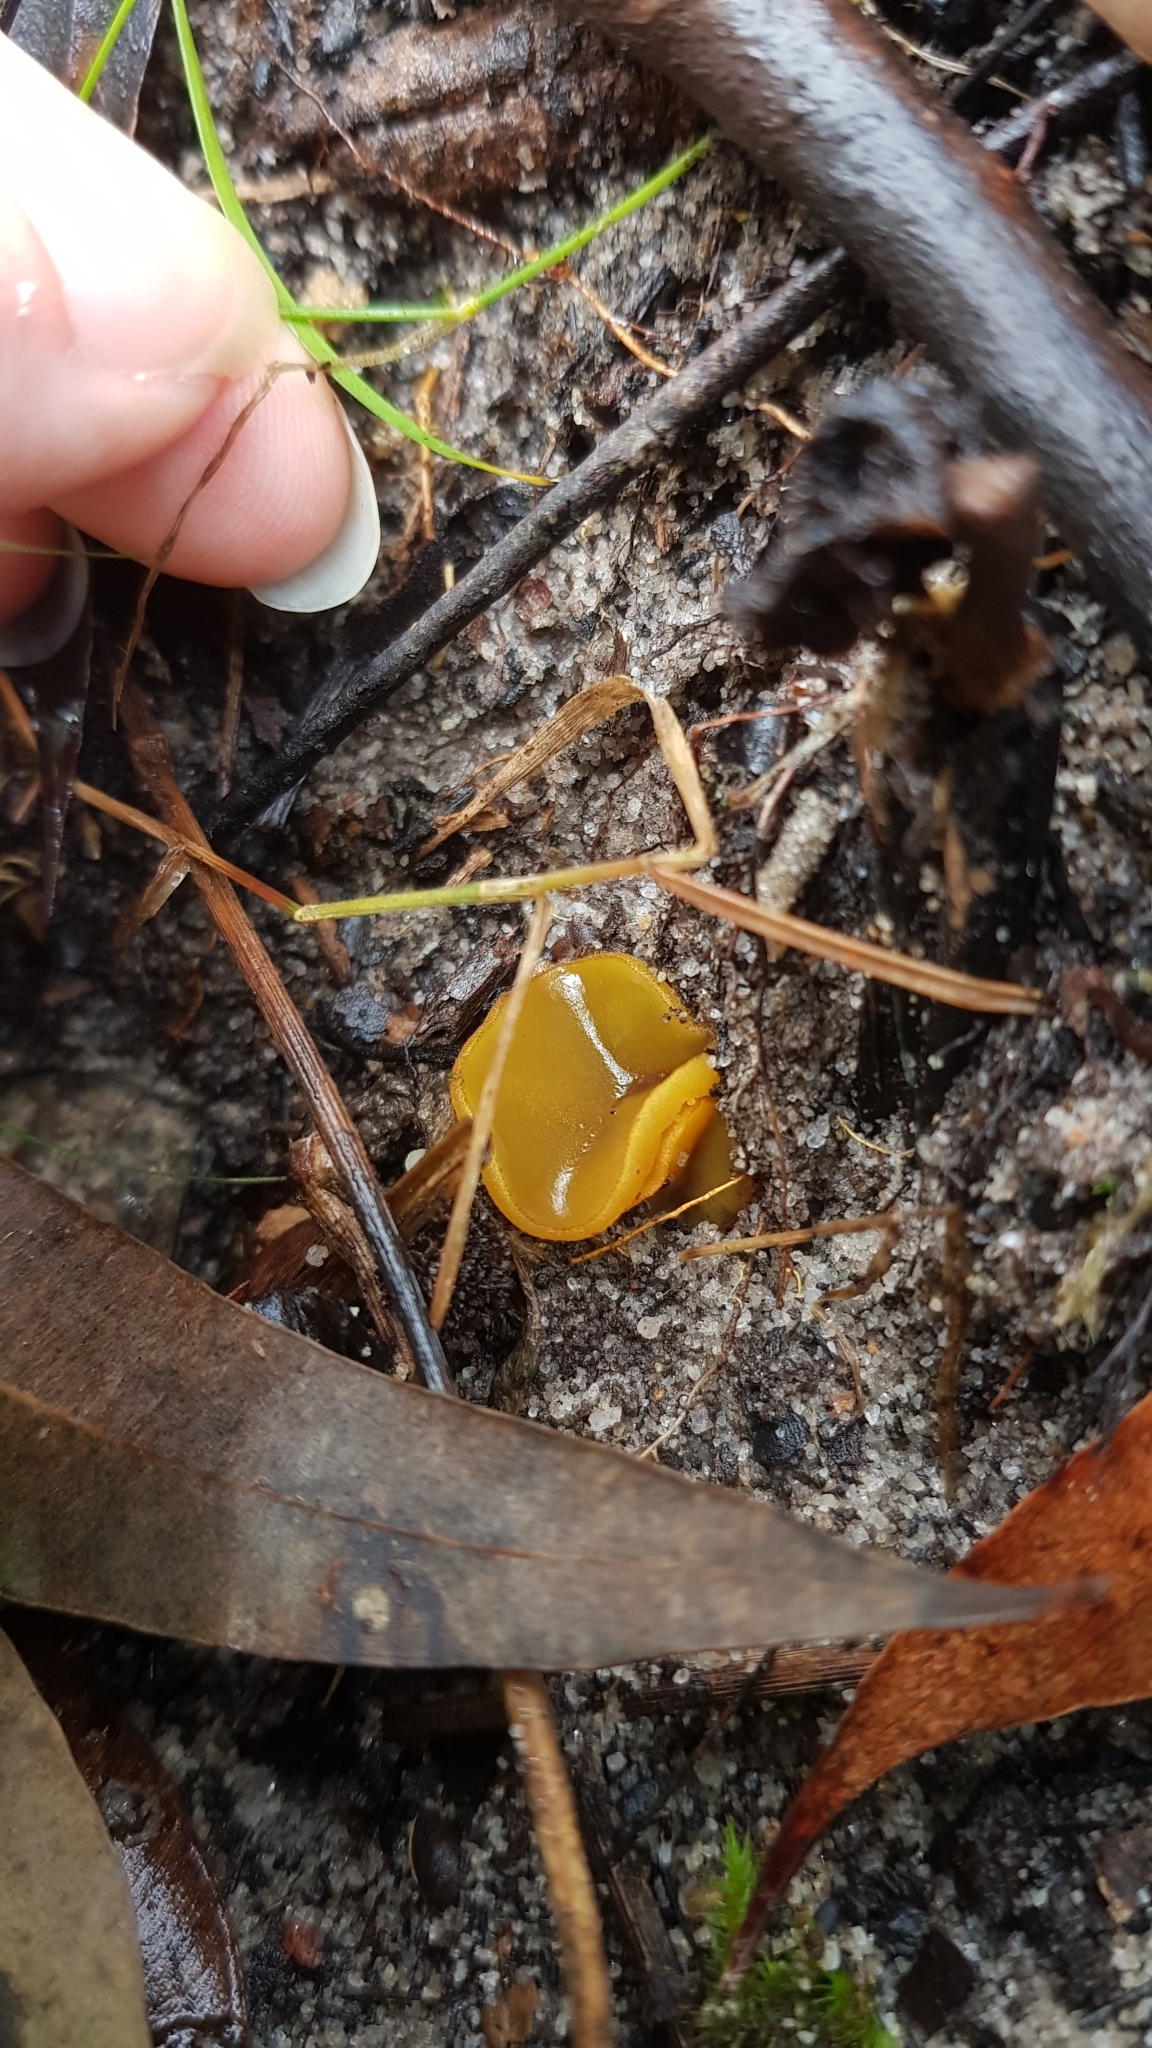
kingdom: Fungi
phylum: Ascomycota
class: Pezizomycetes
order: Pezizales
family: Pyronemataceae
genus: Aleurina
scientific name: Aleurina ferruginea
